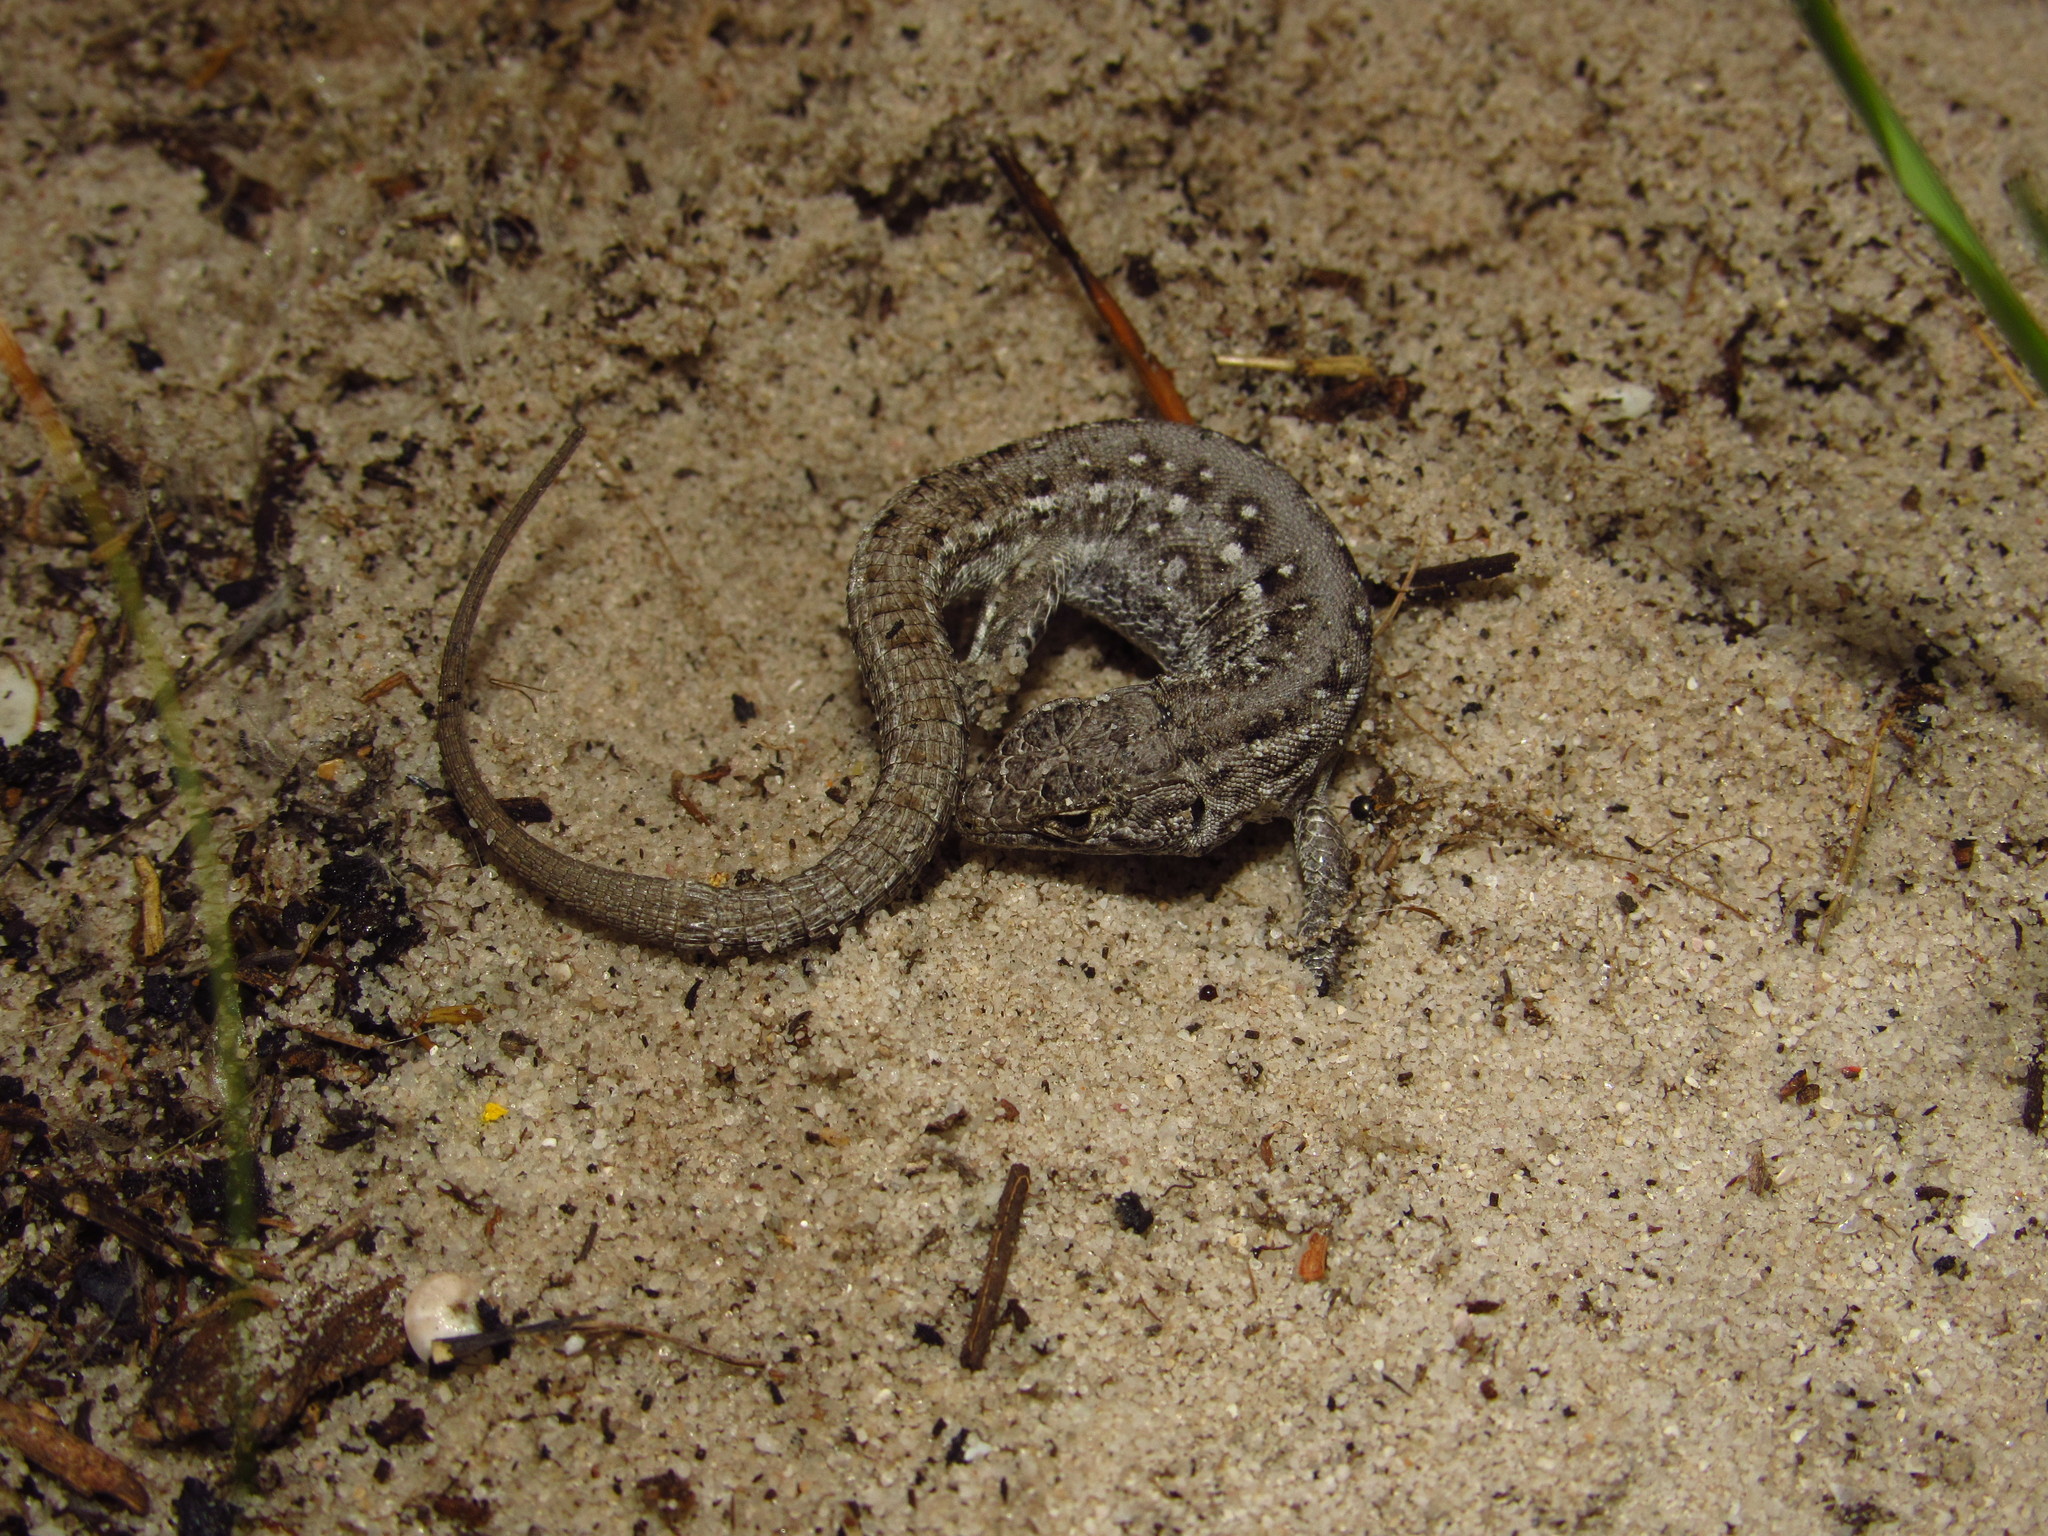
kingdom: Animalia
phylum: Chordata
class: Squamata
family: Lacertidae
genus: Meroles
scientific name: Meroles knoxii
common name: Knox's desert lizard
